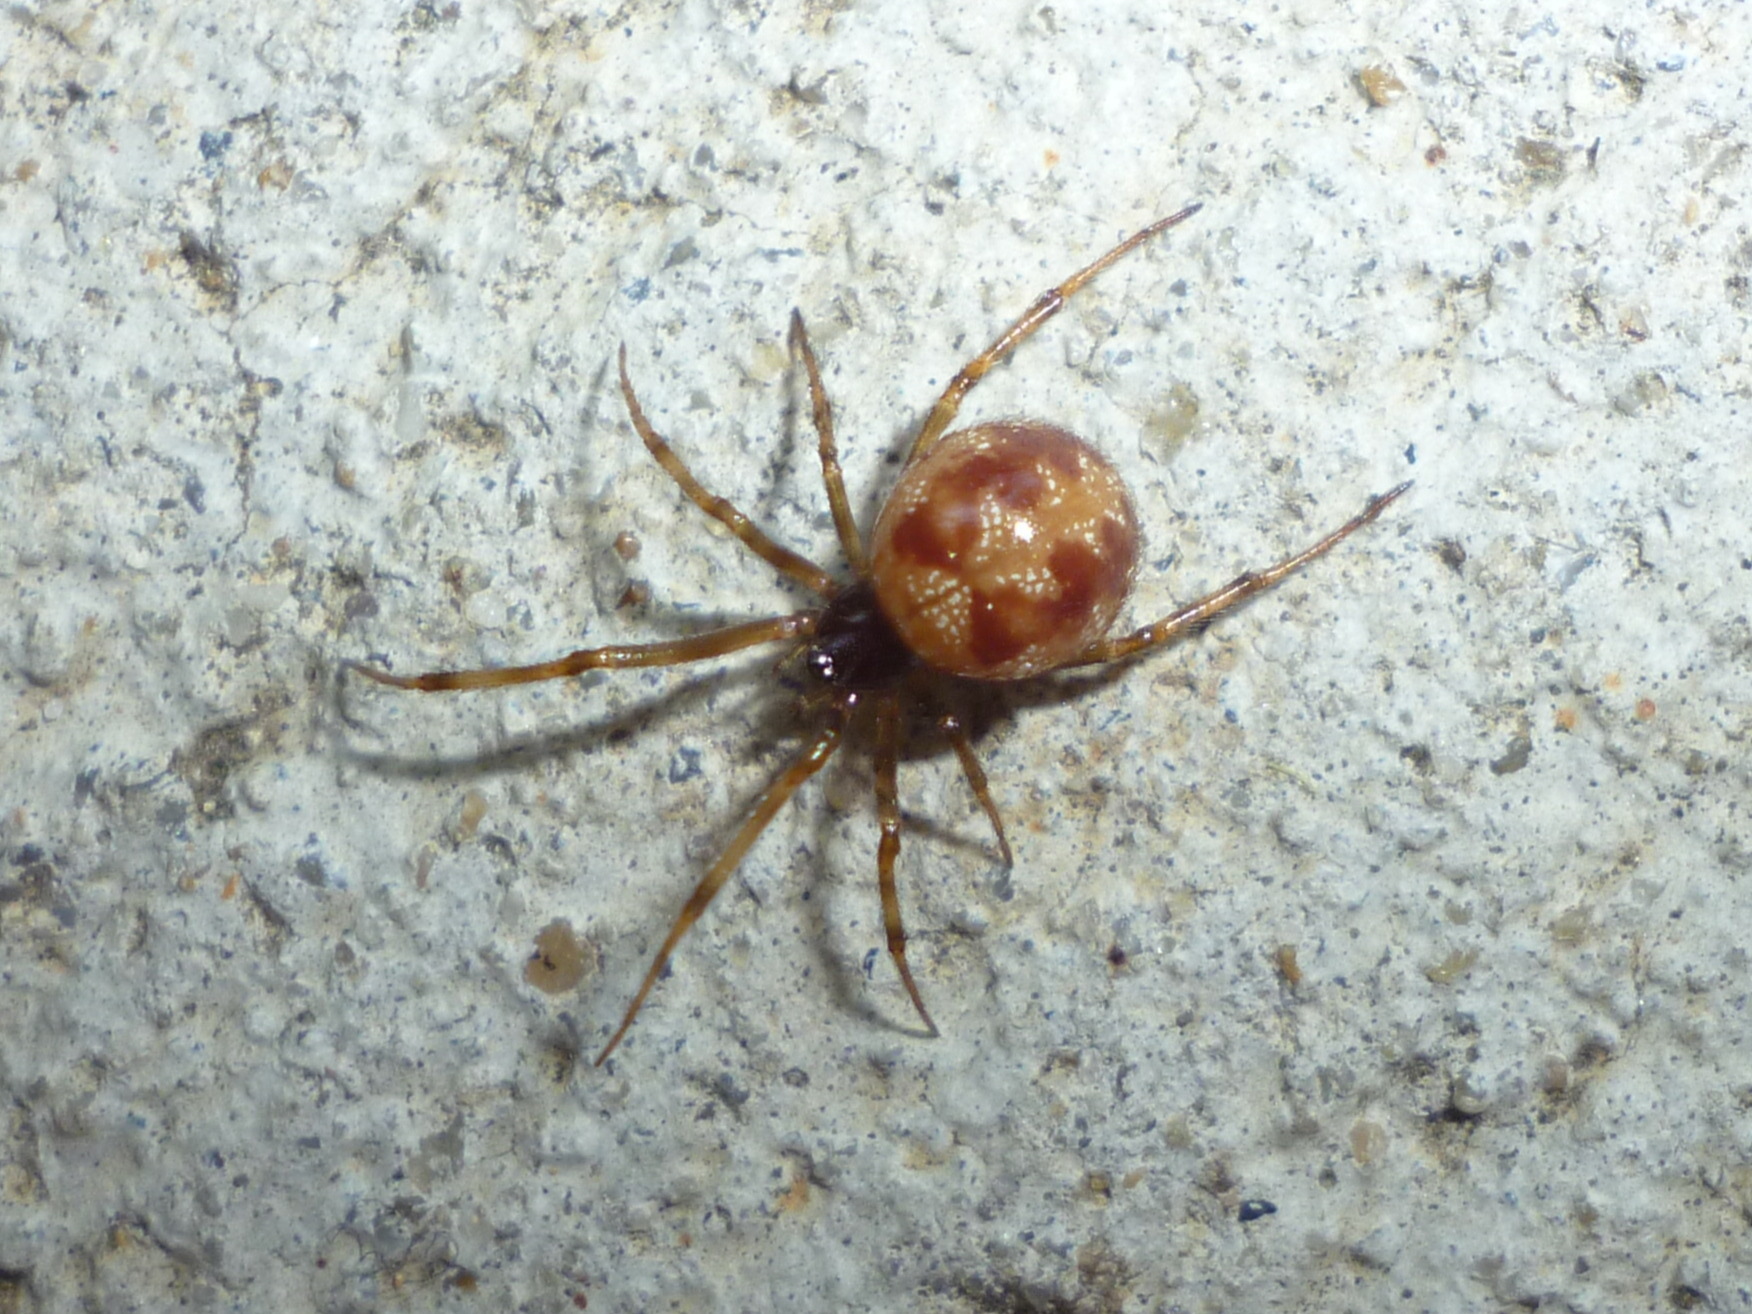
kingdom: Animalia
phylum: Arthropoda
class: Arachnida
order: Araneae
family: Theridiidae
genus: Steatoda
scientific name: Steatoda triangulosa
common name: Triangulate bud spider
